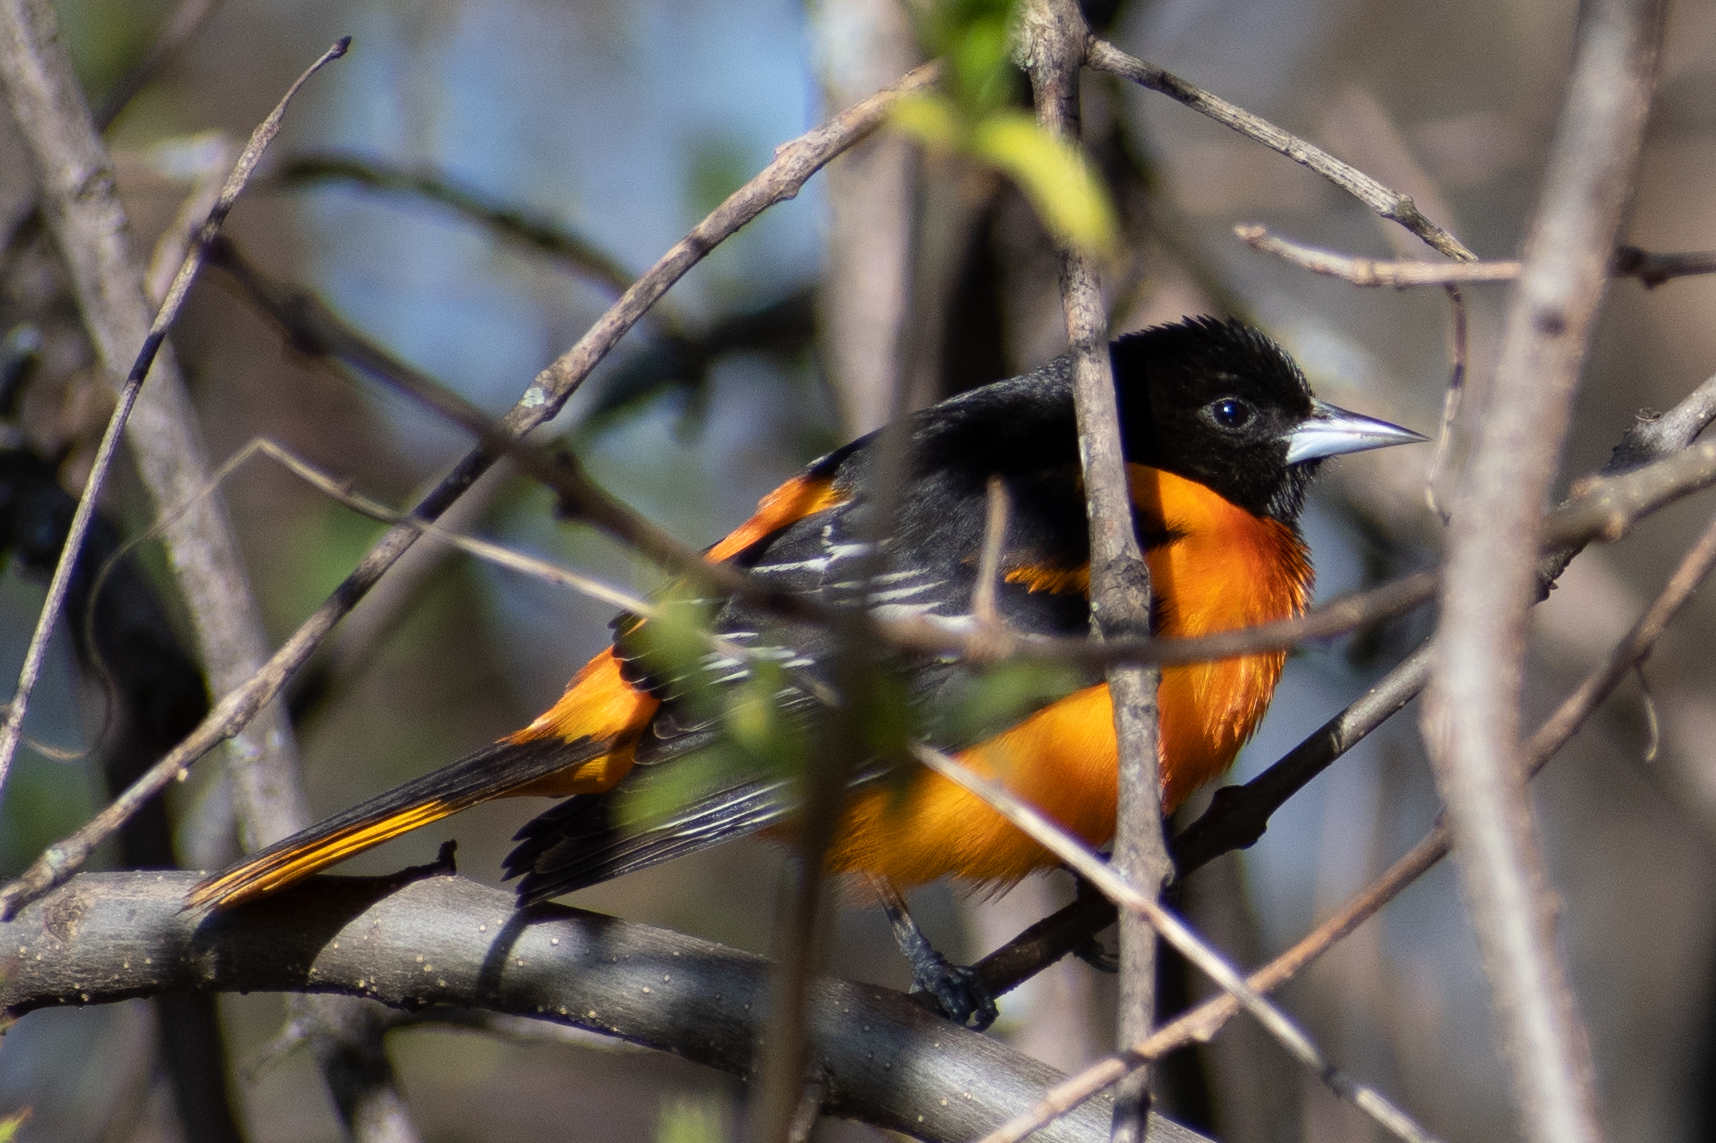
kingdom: Animalia
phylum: Chordata
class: Aves
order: Passeriformes
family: Icteridae
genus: Icterus
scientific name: Icterus galbula
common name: Baltimore oriole
